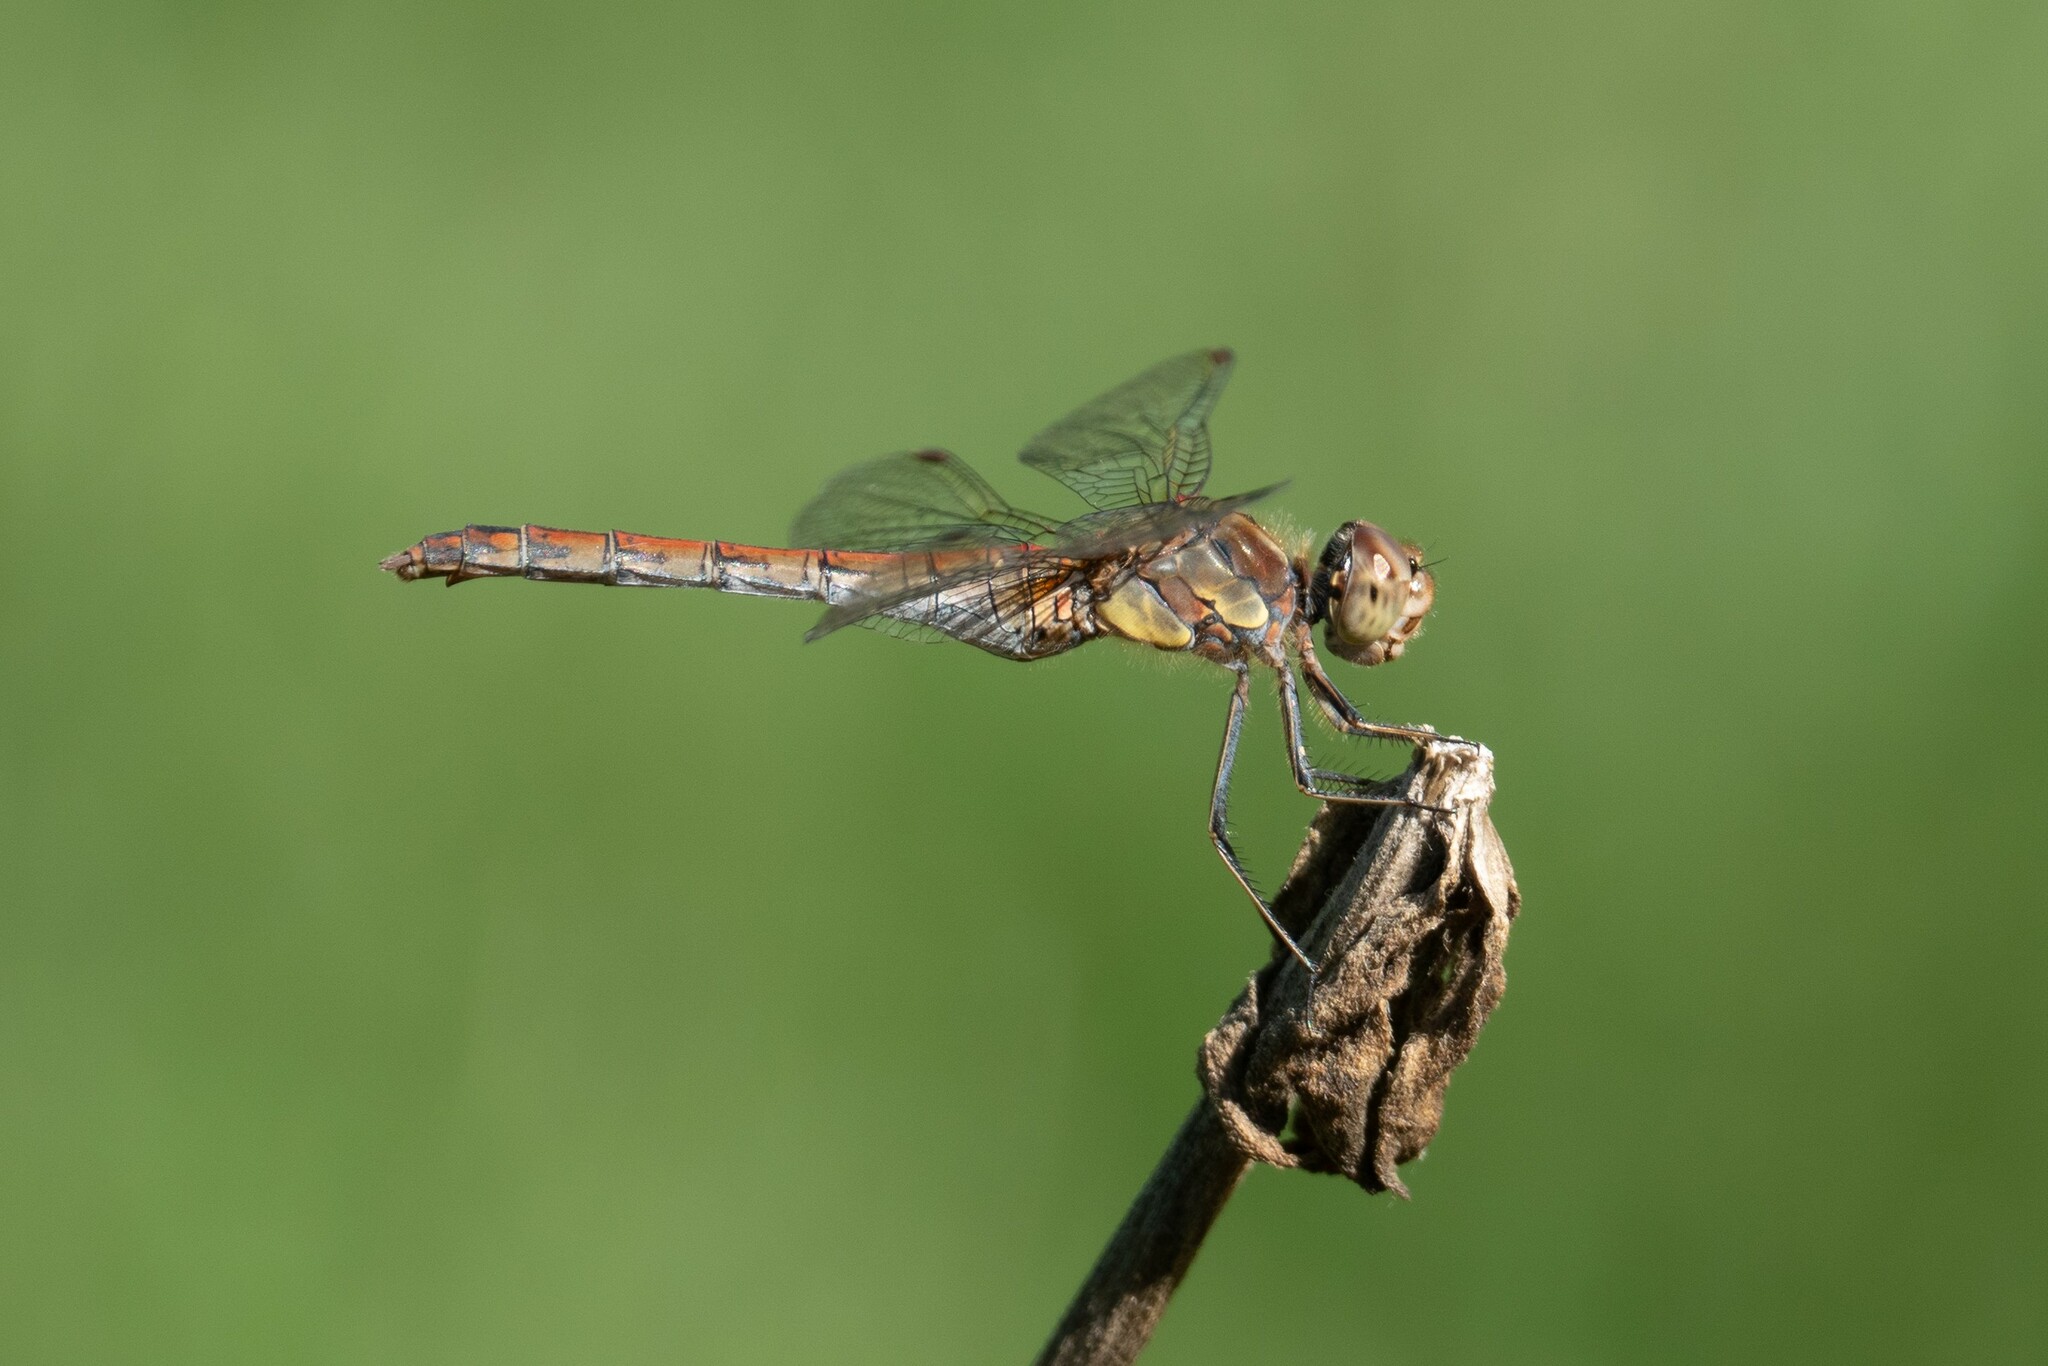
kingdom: Animalia
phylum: Arthropoda
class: Insecta
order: Odonata
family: Libellulidae
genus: Sympetrum
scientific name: Sympetrum striolatum
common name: Common darter
